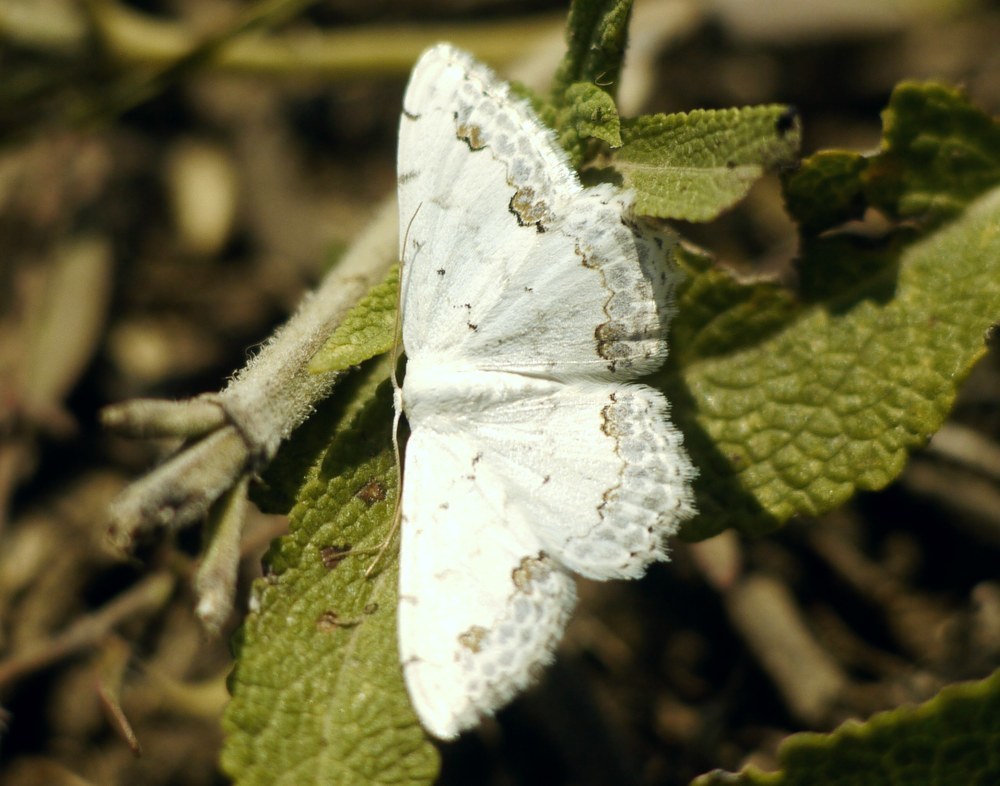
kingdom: Animalia
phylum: Arthropoda
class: Insecta
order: Lepidoptera
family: Geometridae
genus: Scopula
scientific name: Scopula ornata
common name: Lace border
